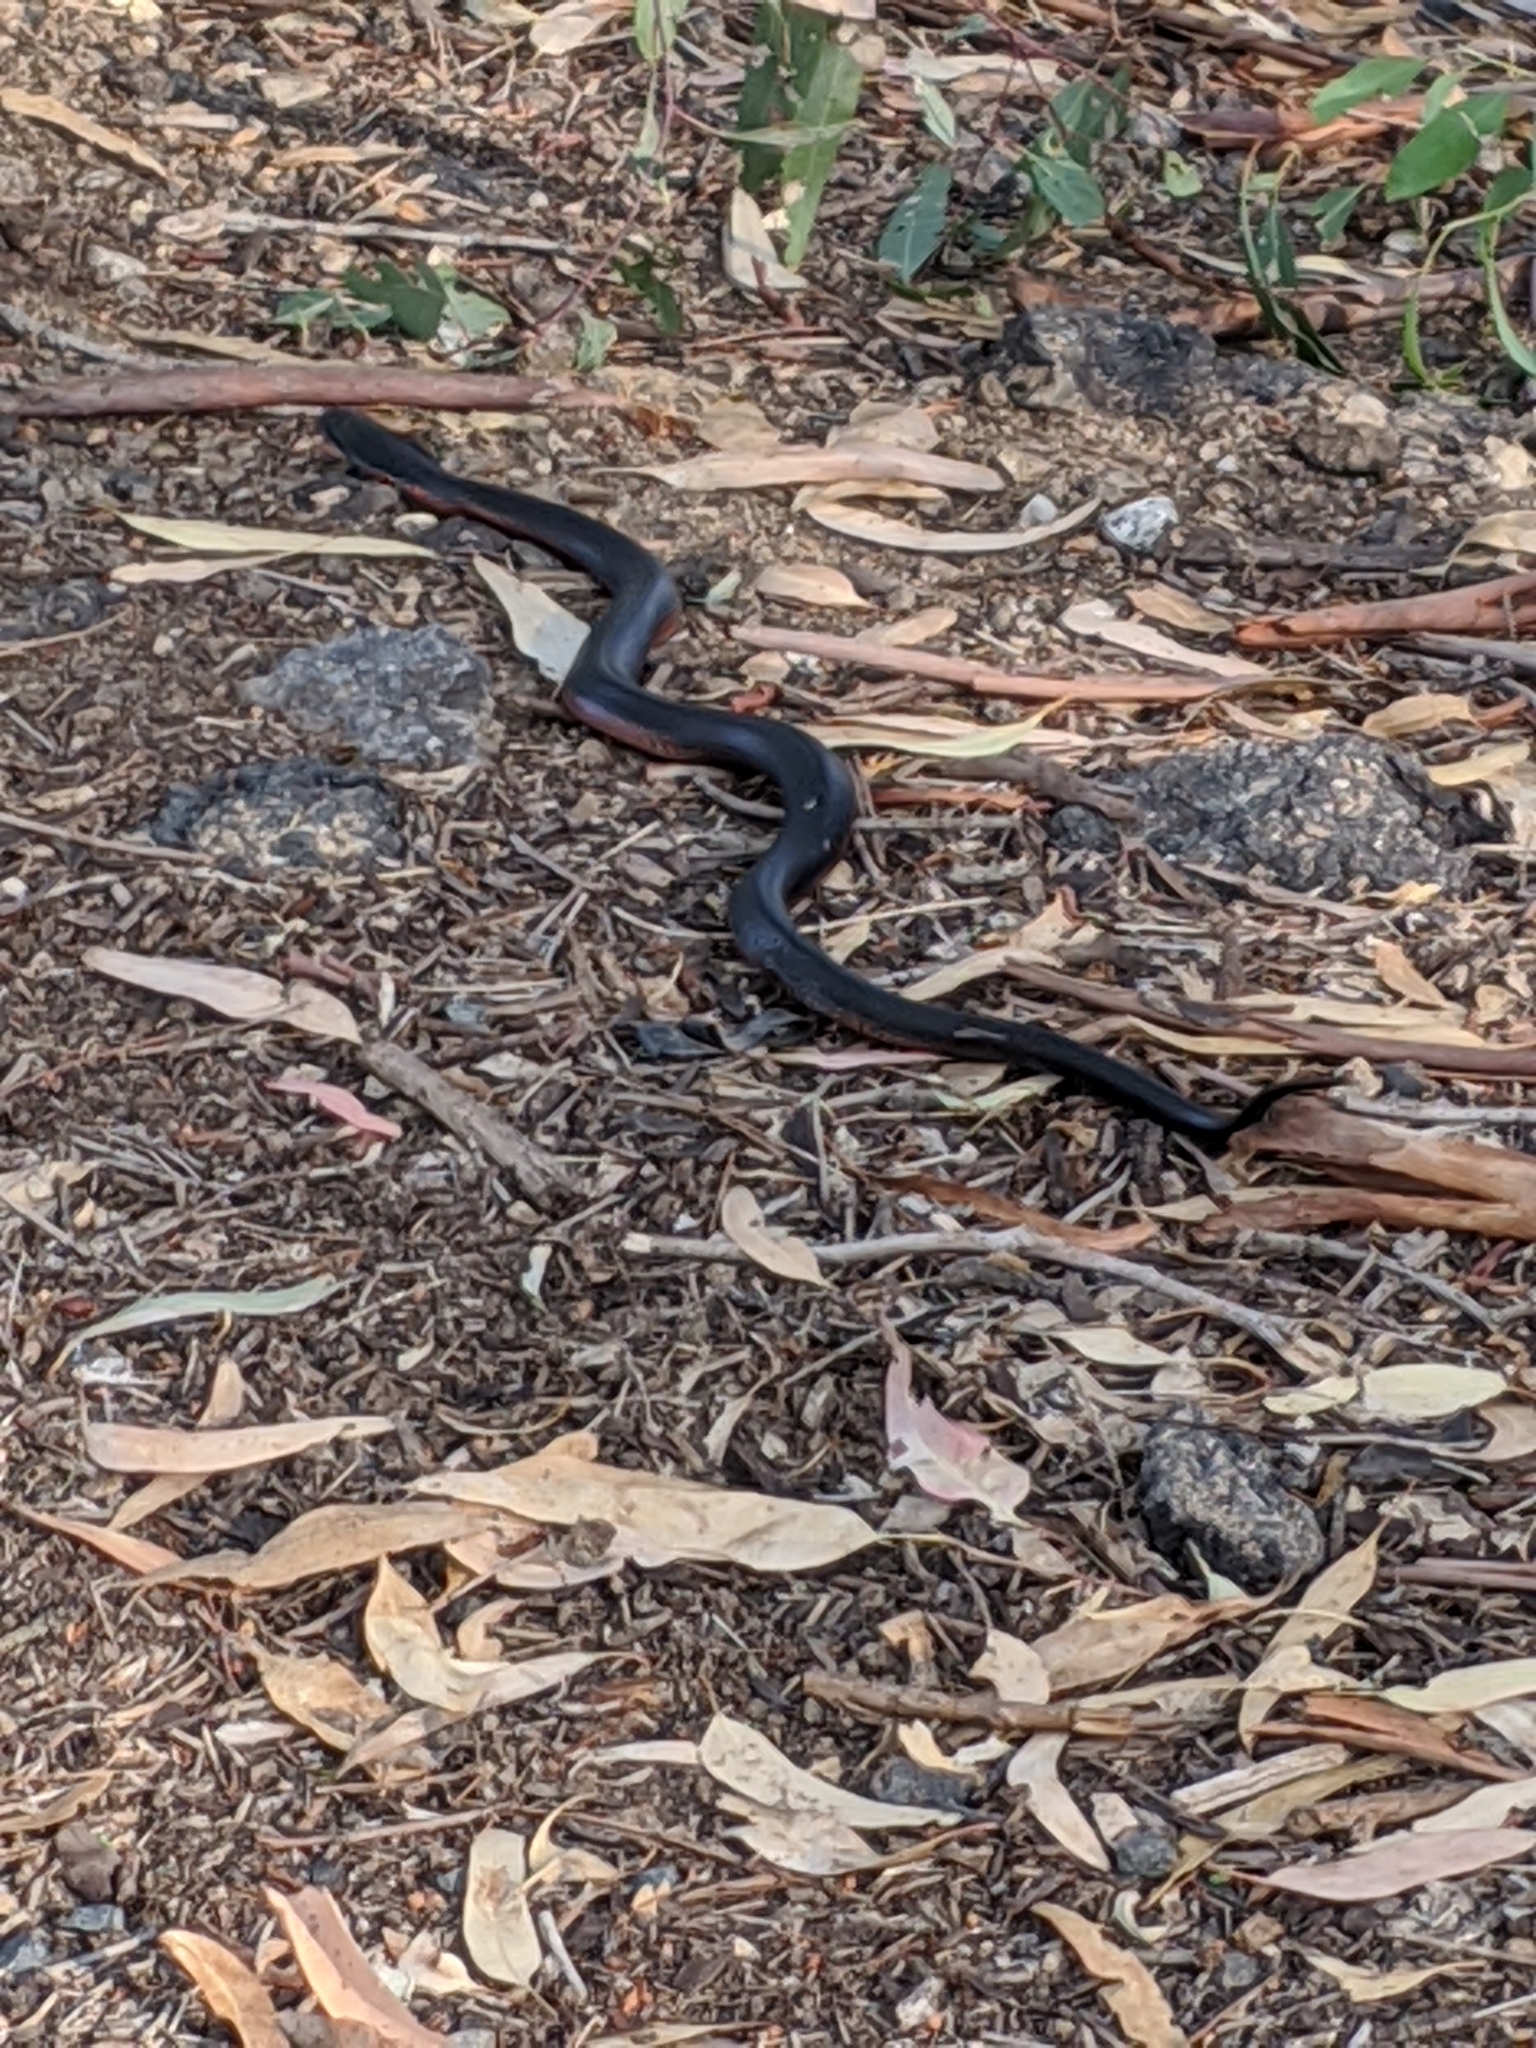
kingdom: Animalia
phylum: Chordata
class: Squamata
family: Elapidae
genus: Pseudechis
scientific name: Pseudechis porphyriacus
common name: Australian black snake
